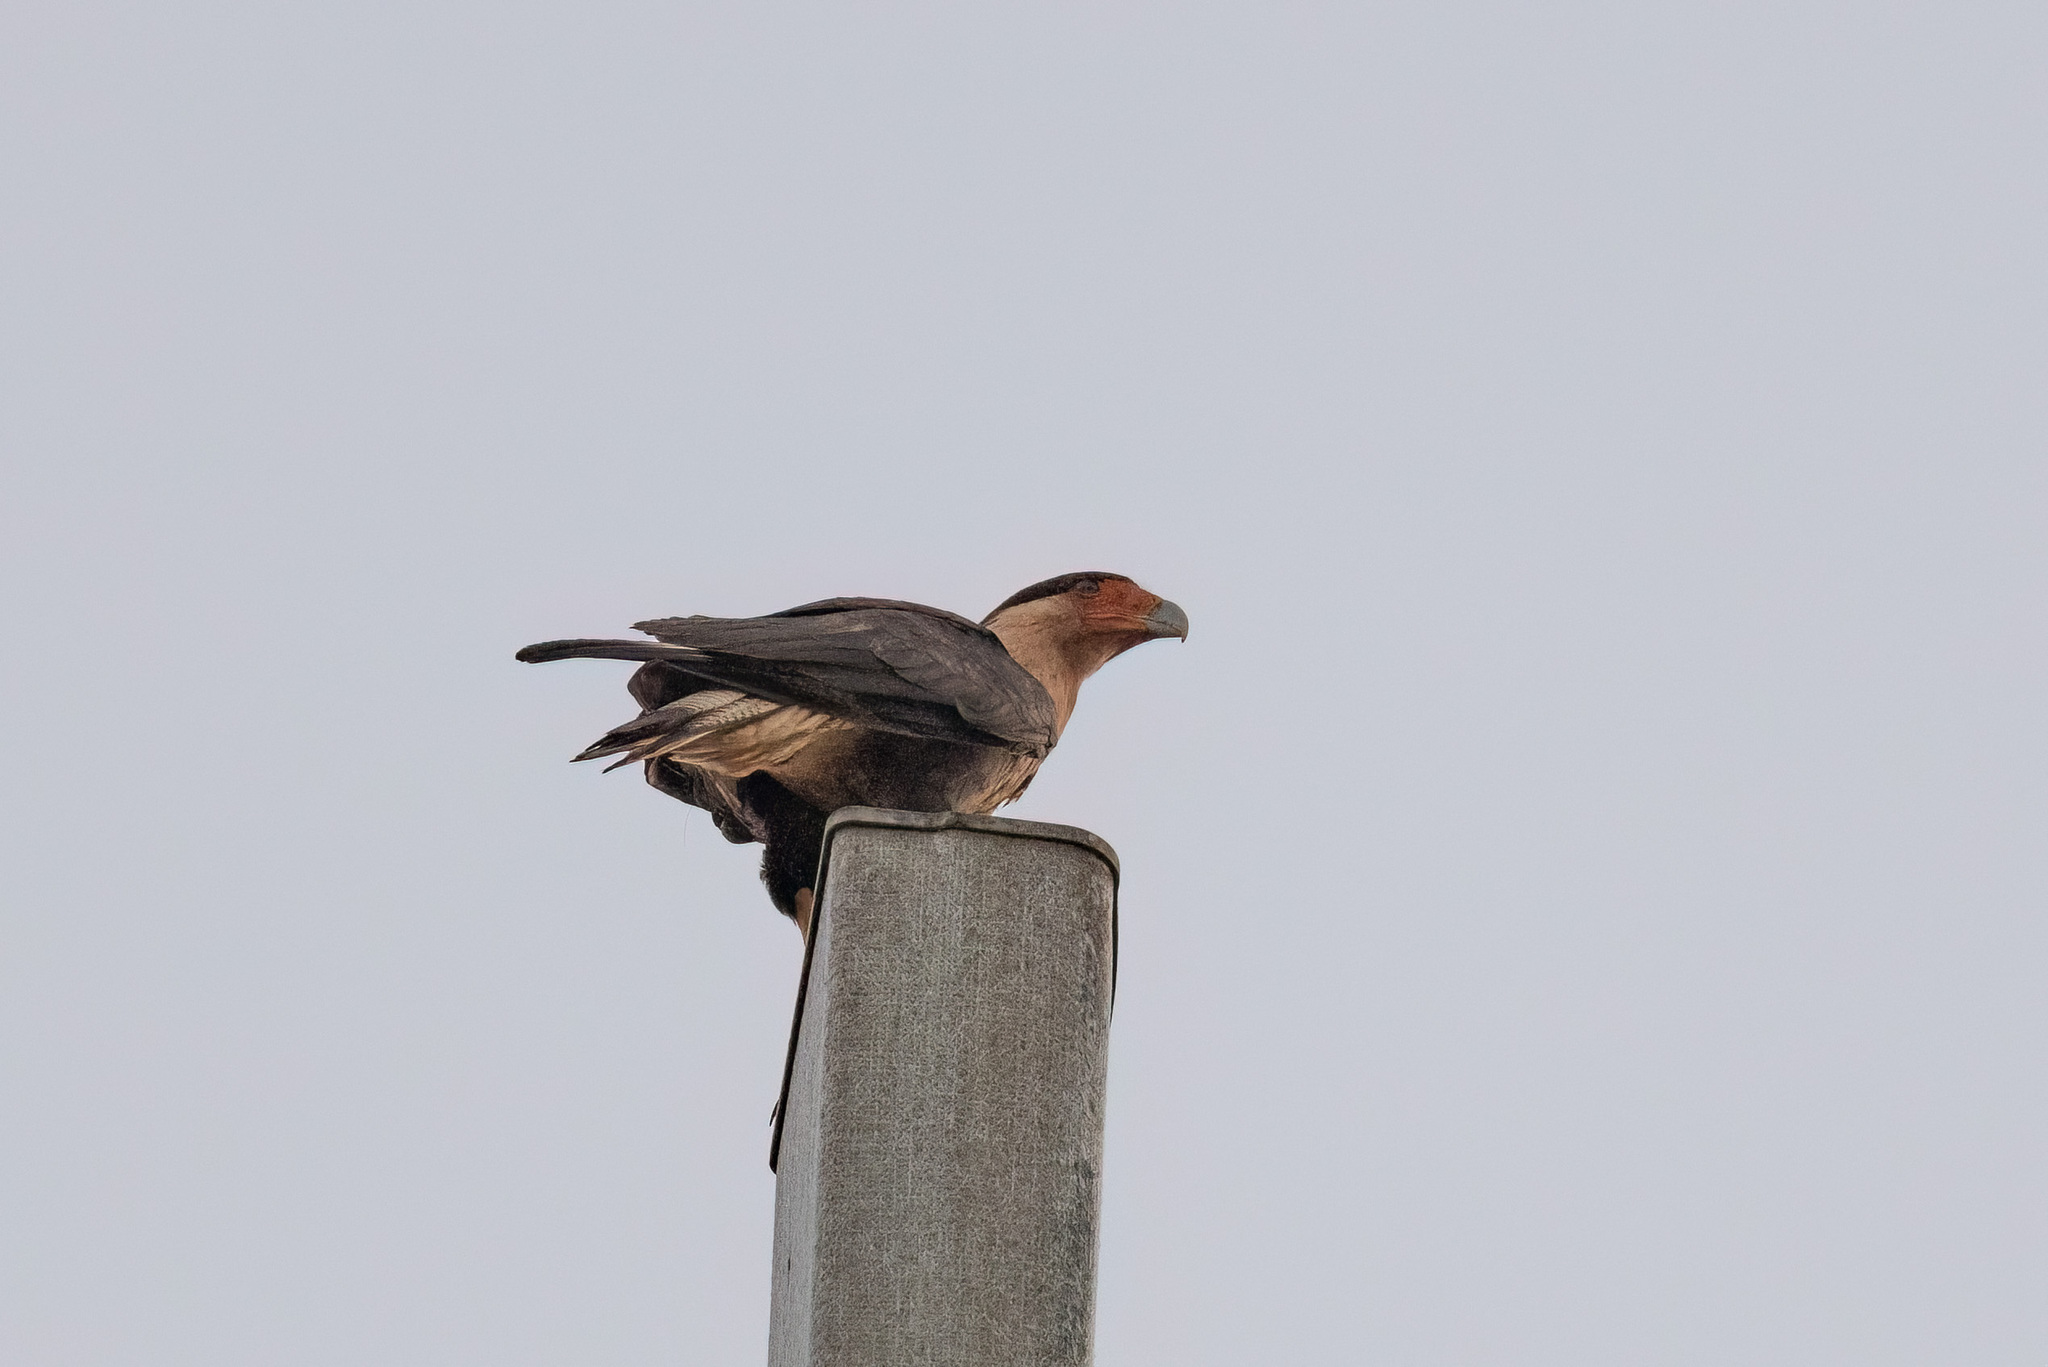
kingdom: Animalia
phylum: Chordata
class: Aves
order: Falconiformes
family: Falconidae
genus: Caracara
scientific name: Caracara plancus
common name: Southern caracara
